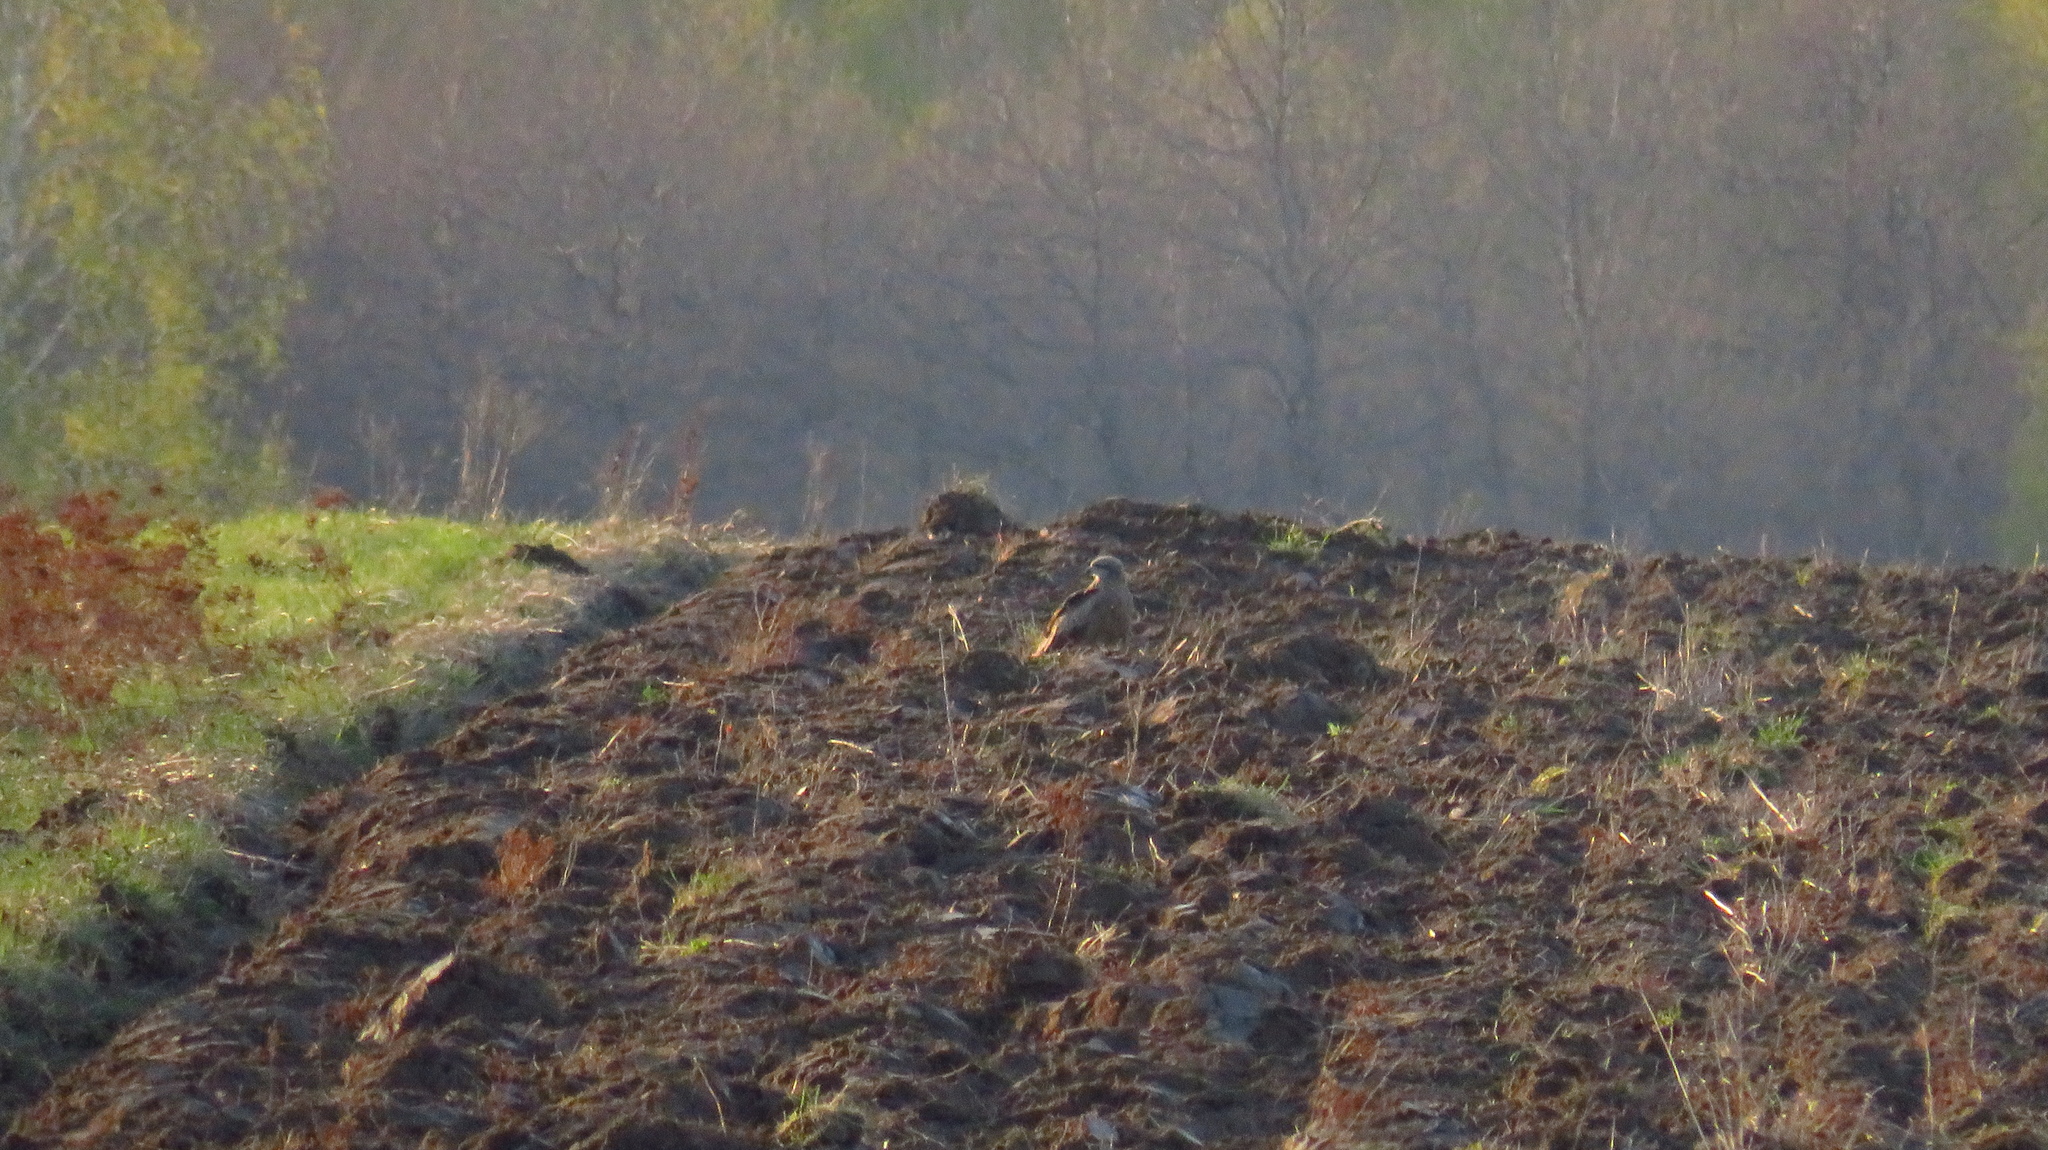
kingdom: Animalia
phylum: Chordata
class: Aves
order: Accipitriformes
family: Accipitridae
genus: Milvus
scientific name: Milvus migrans
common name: Black kite
